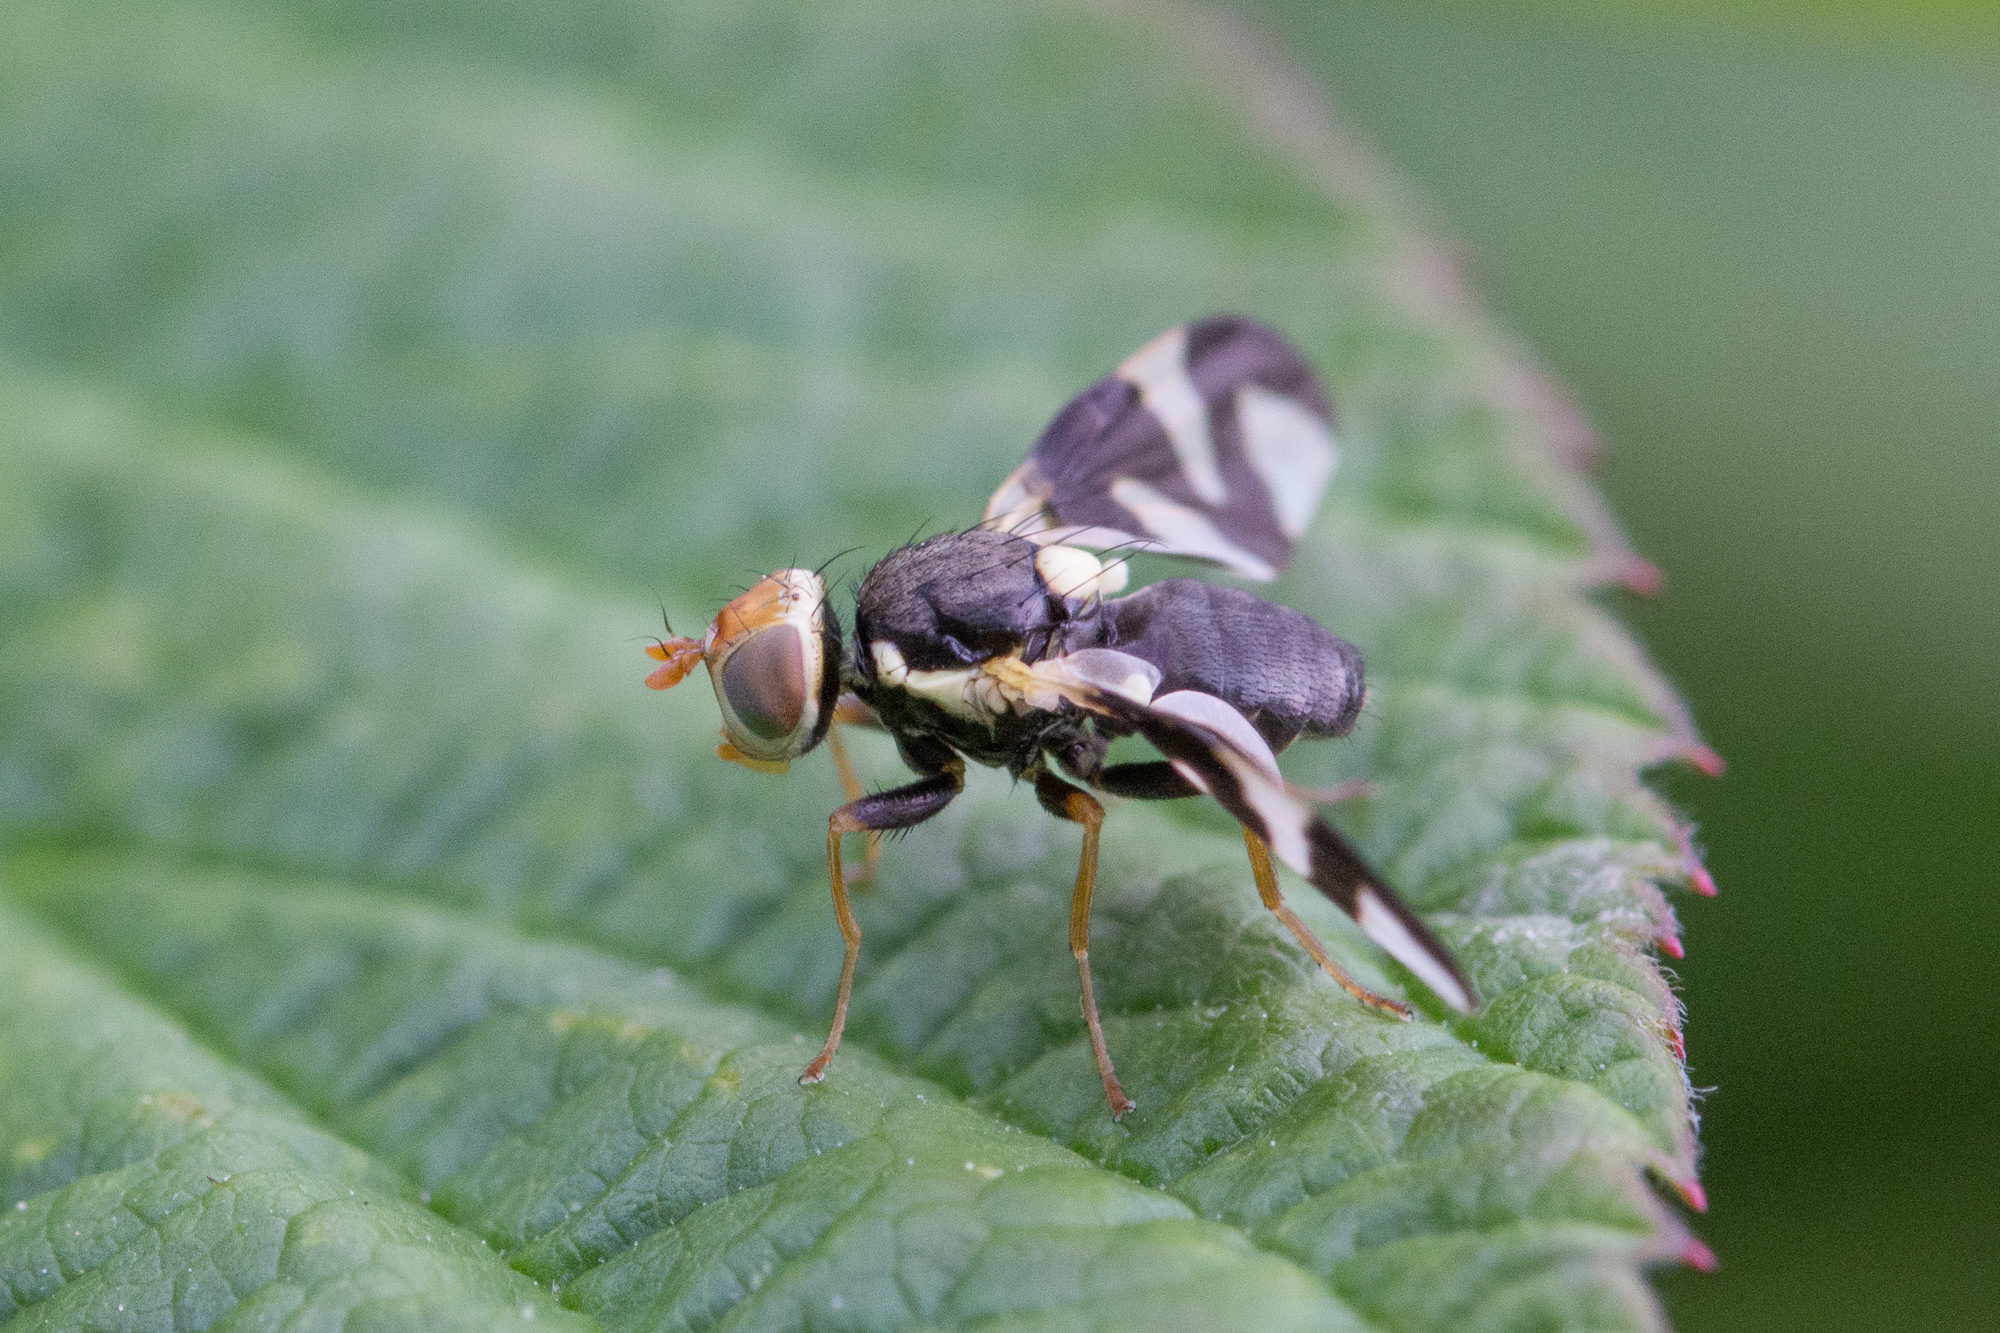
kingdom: Animalia
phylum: Arthropoda
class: Insecta
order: Diptera
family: Tephritidae
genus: Urophora
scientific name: Urophora cardui
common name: Fruit fly
